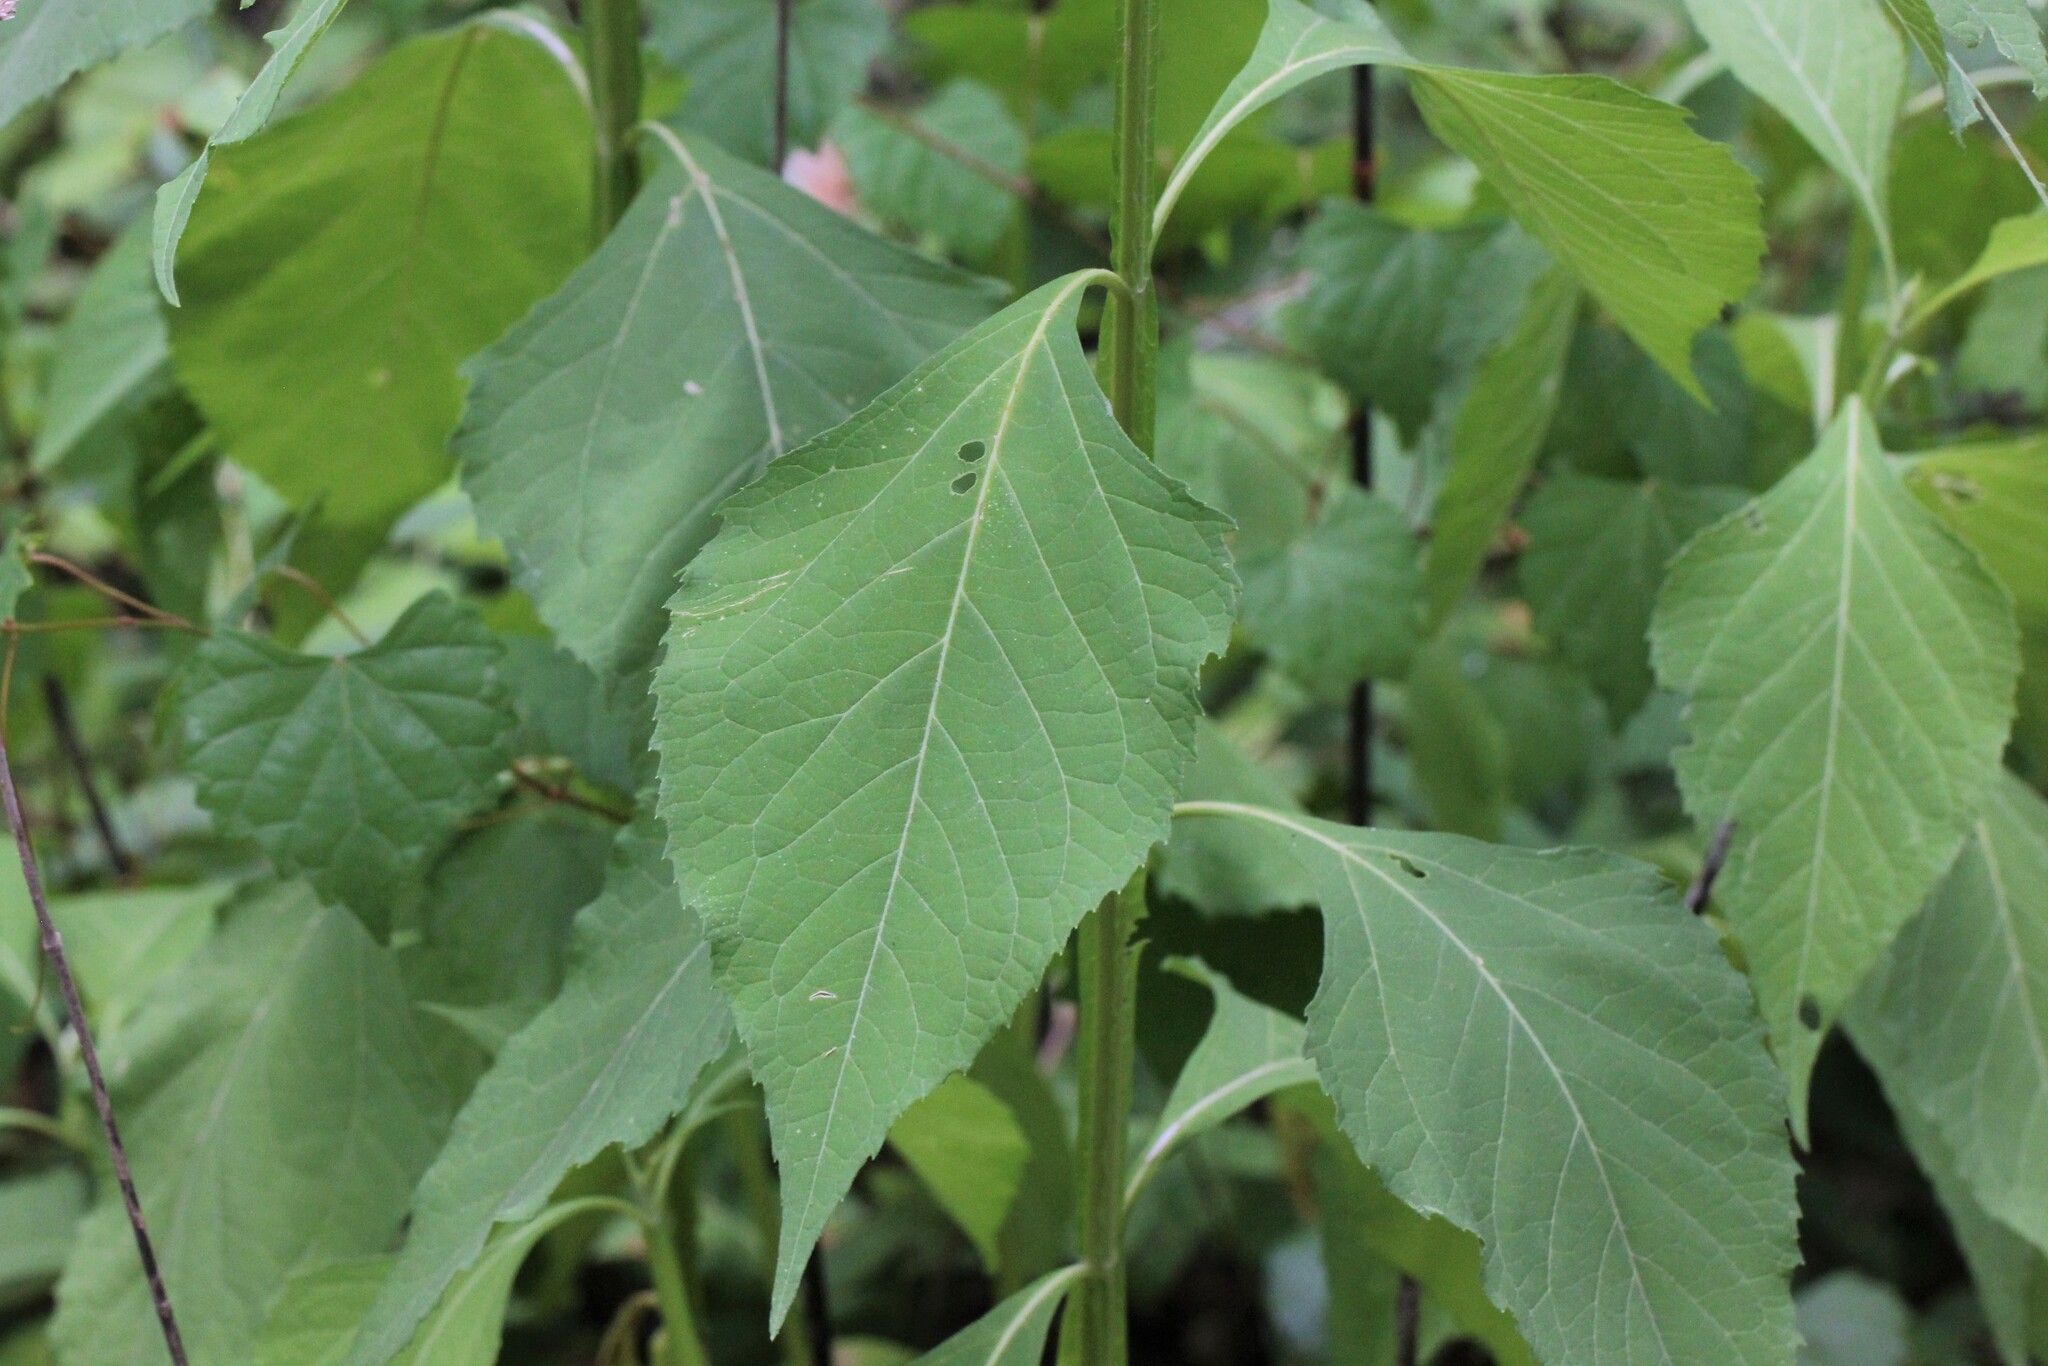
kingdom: Plantae
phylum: Tracheophyta
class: Magnoliopsida
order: Asterales
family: Asteraceae
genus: Verbesina
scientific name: Verbesina occidentalis
